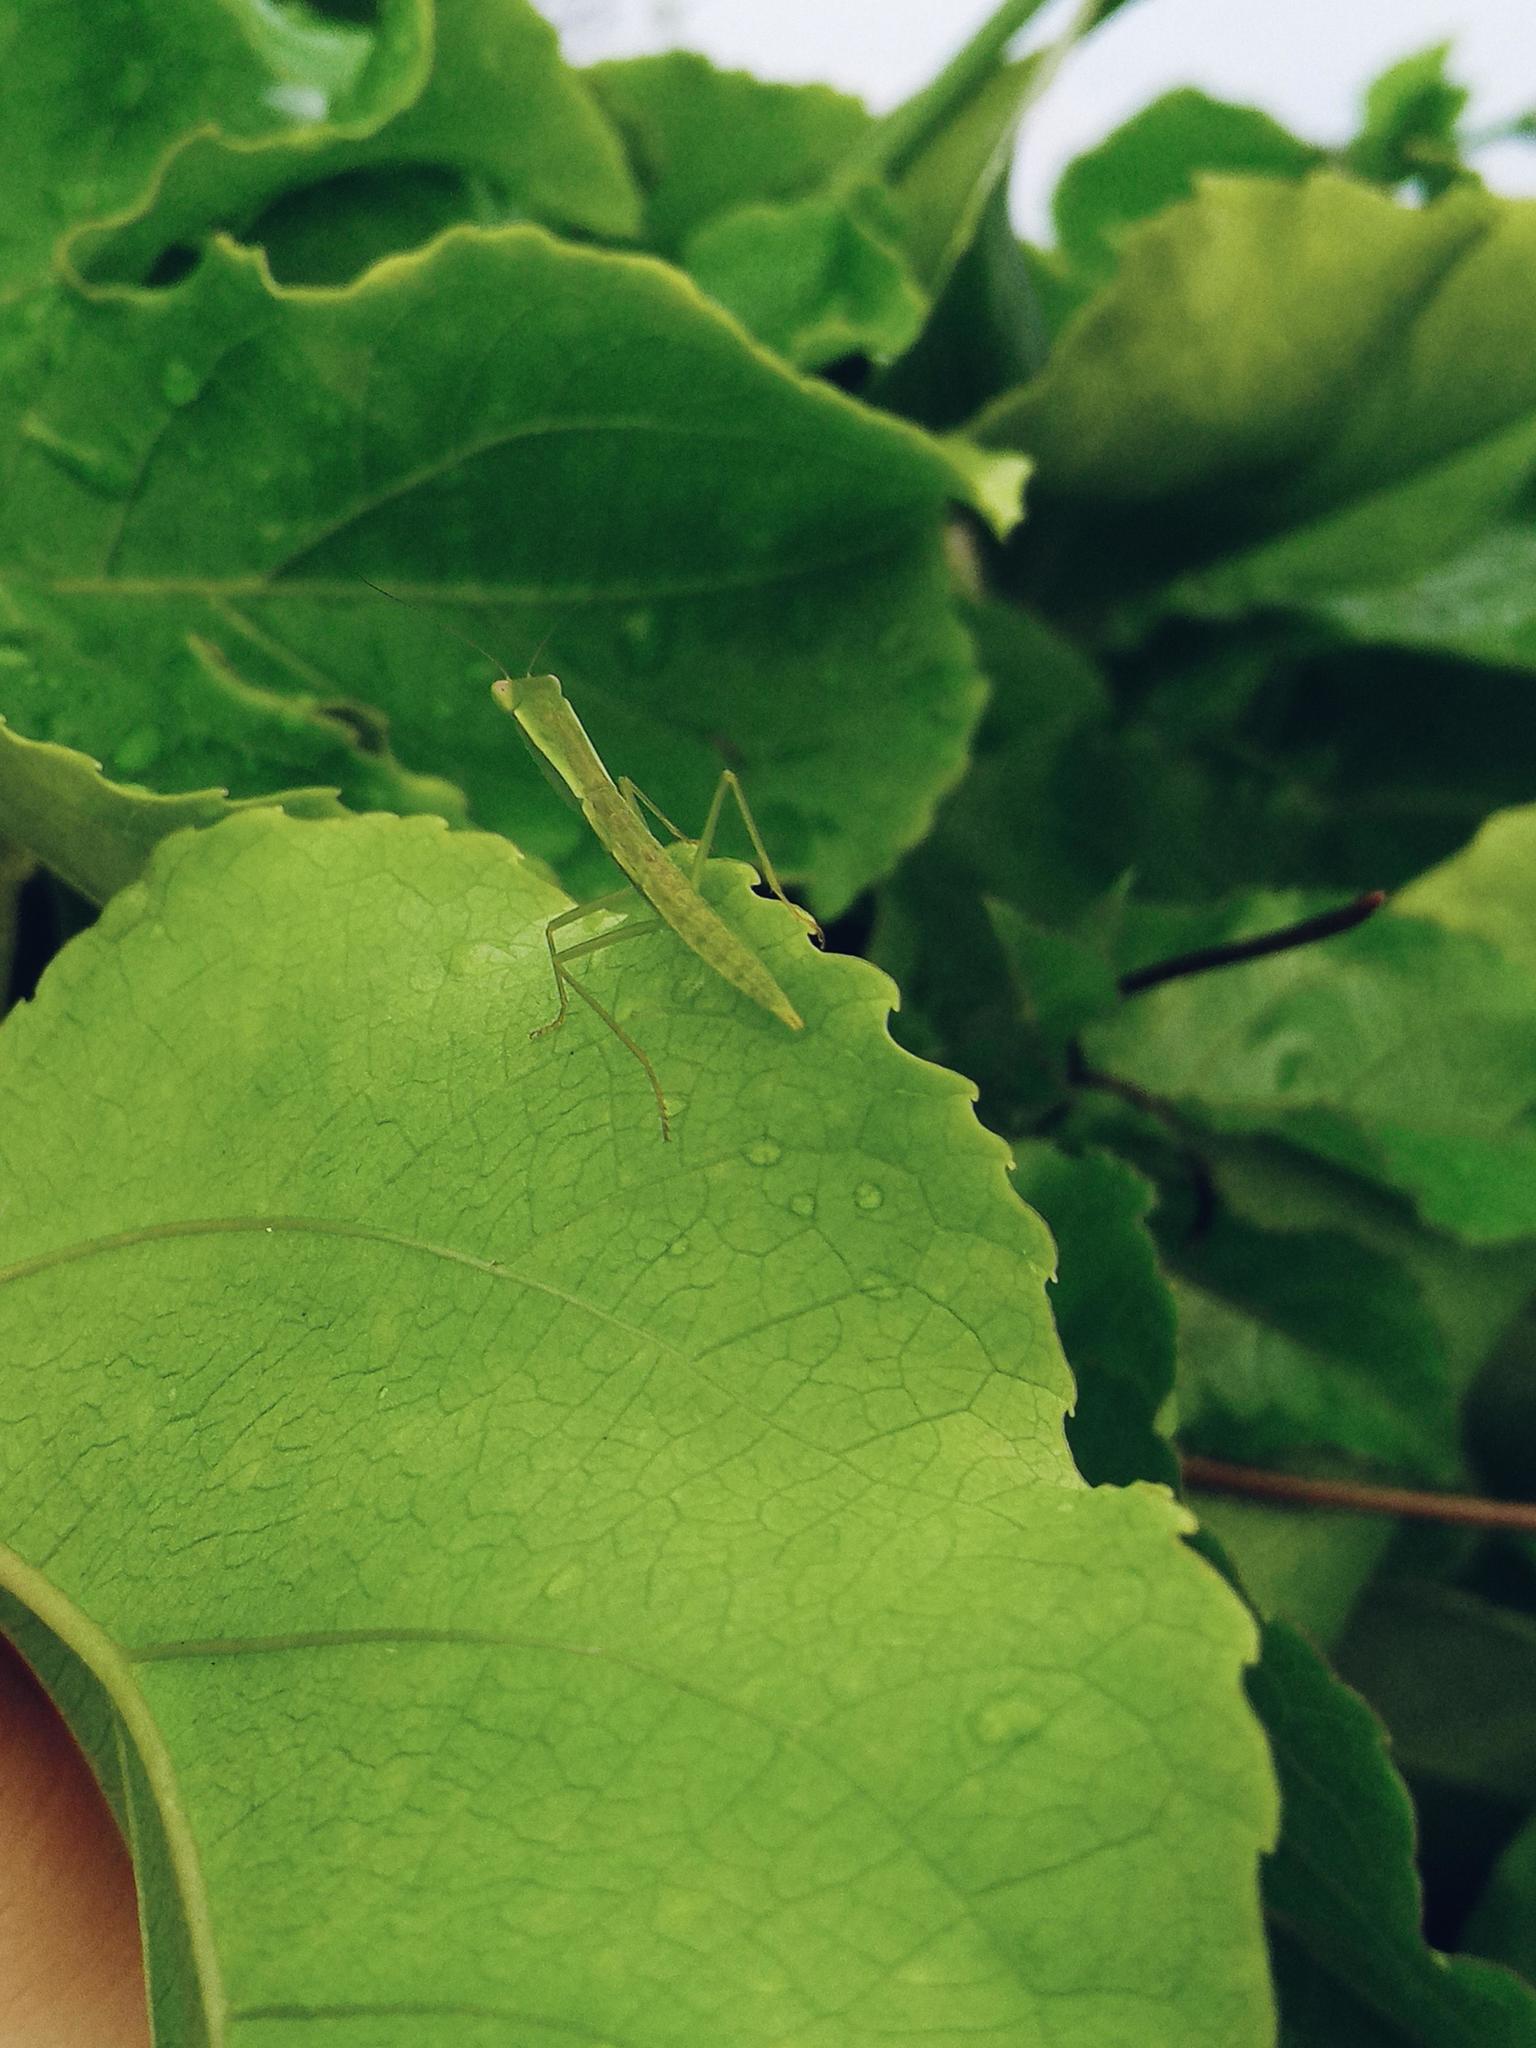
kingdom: Animalia
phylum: Arthropoda
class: Insecta
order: Mantodea
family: Mantidae
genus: Orthodera
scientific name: Orthodera ministralis
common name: Mantis
